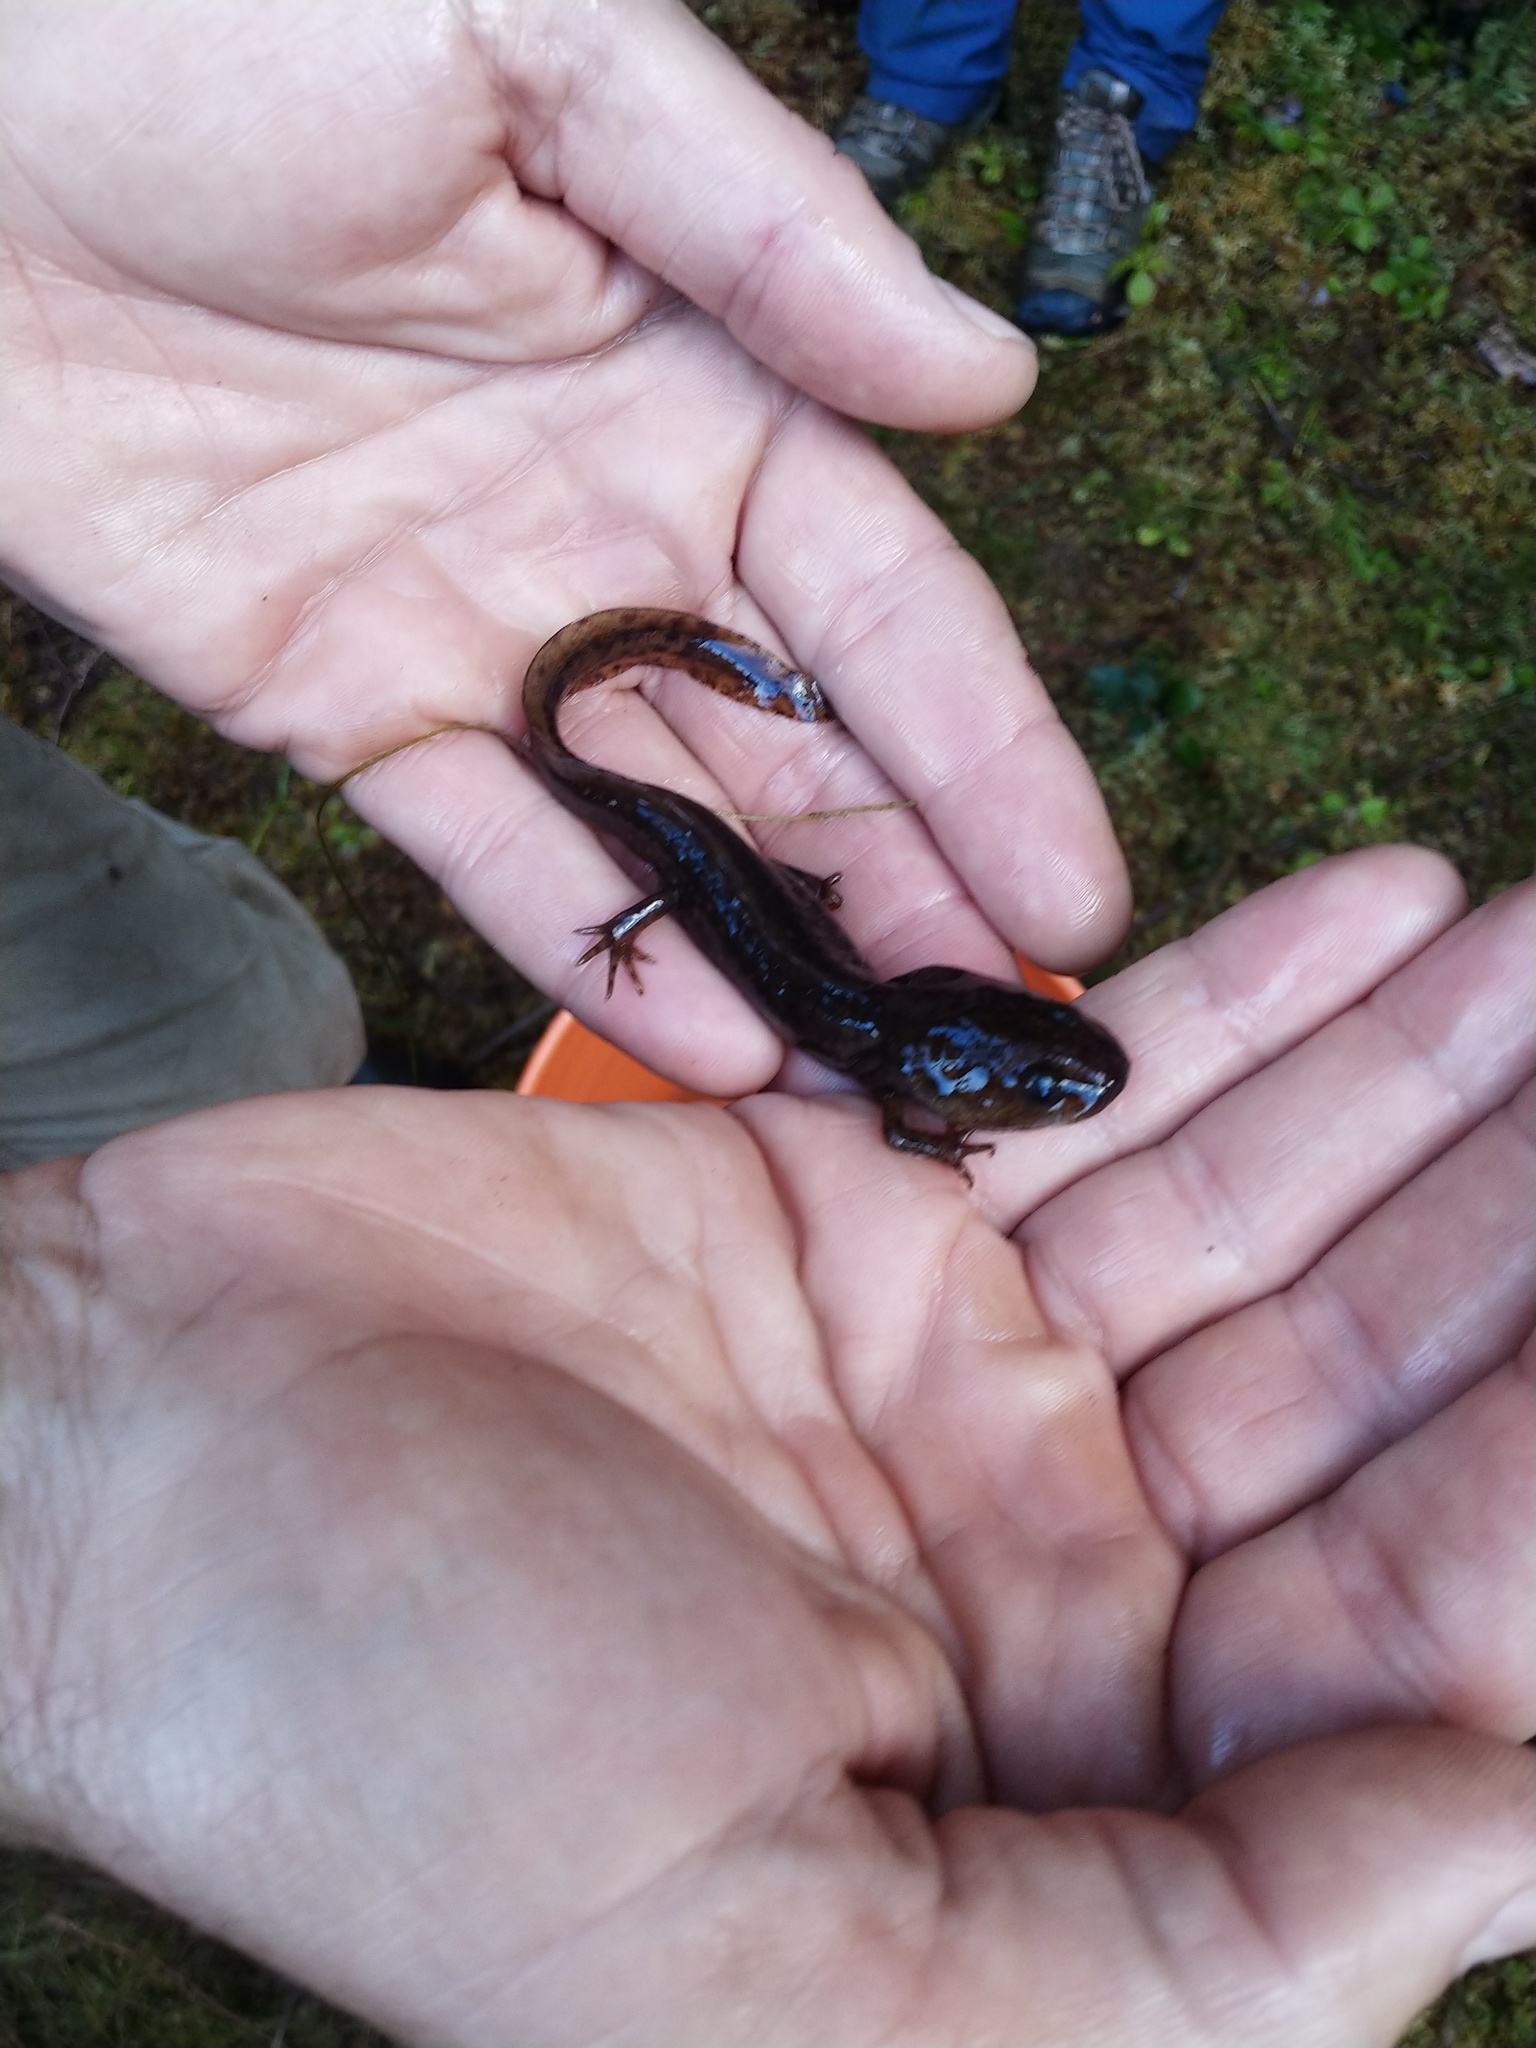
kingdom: Animalia
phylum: Chordata
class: Amphibia
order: Caudata
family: Ambystomatidae
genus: Ambystoma
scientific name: Ambystoma gracile
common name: Northwestern salamander
